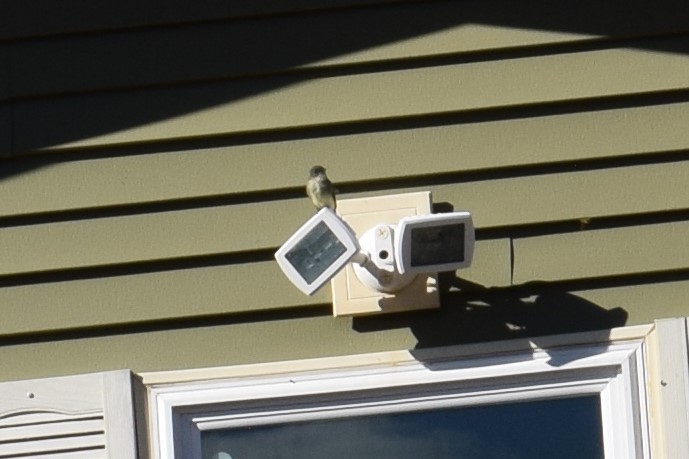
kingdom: Animalia
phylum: Chordata
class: Aves
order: Passeriformes
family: Tyrannidae
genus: Sayornis
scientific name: Sayornis phoebe
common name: Eastern phoebe
